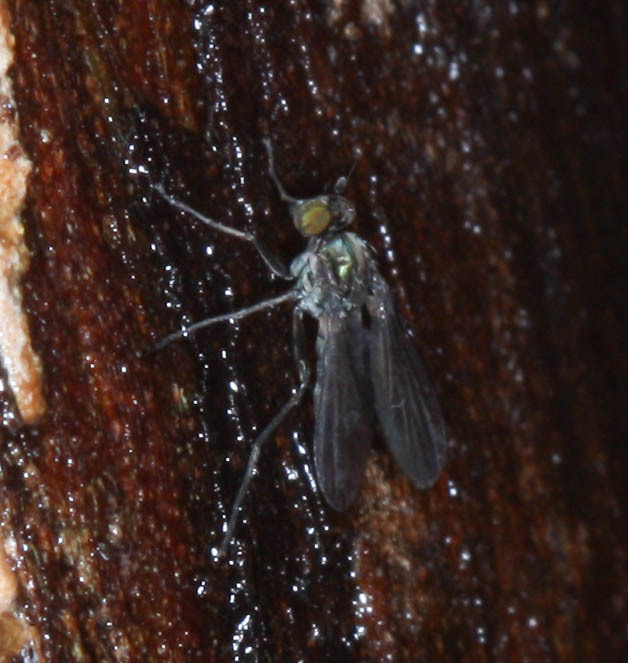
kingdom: Animalia
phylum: Arthropoda
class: Insecta
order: Diptera
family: Dolichopodidae
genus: Dolichopus
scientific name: Dolichopus exsul
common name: Fly
